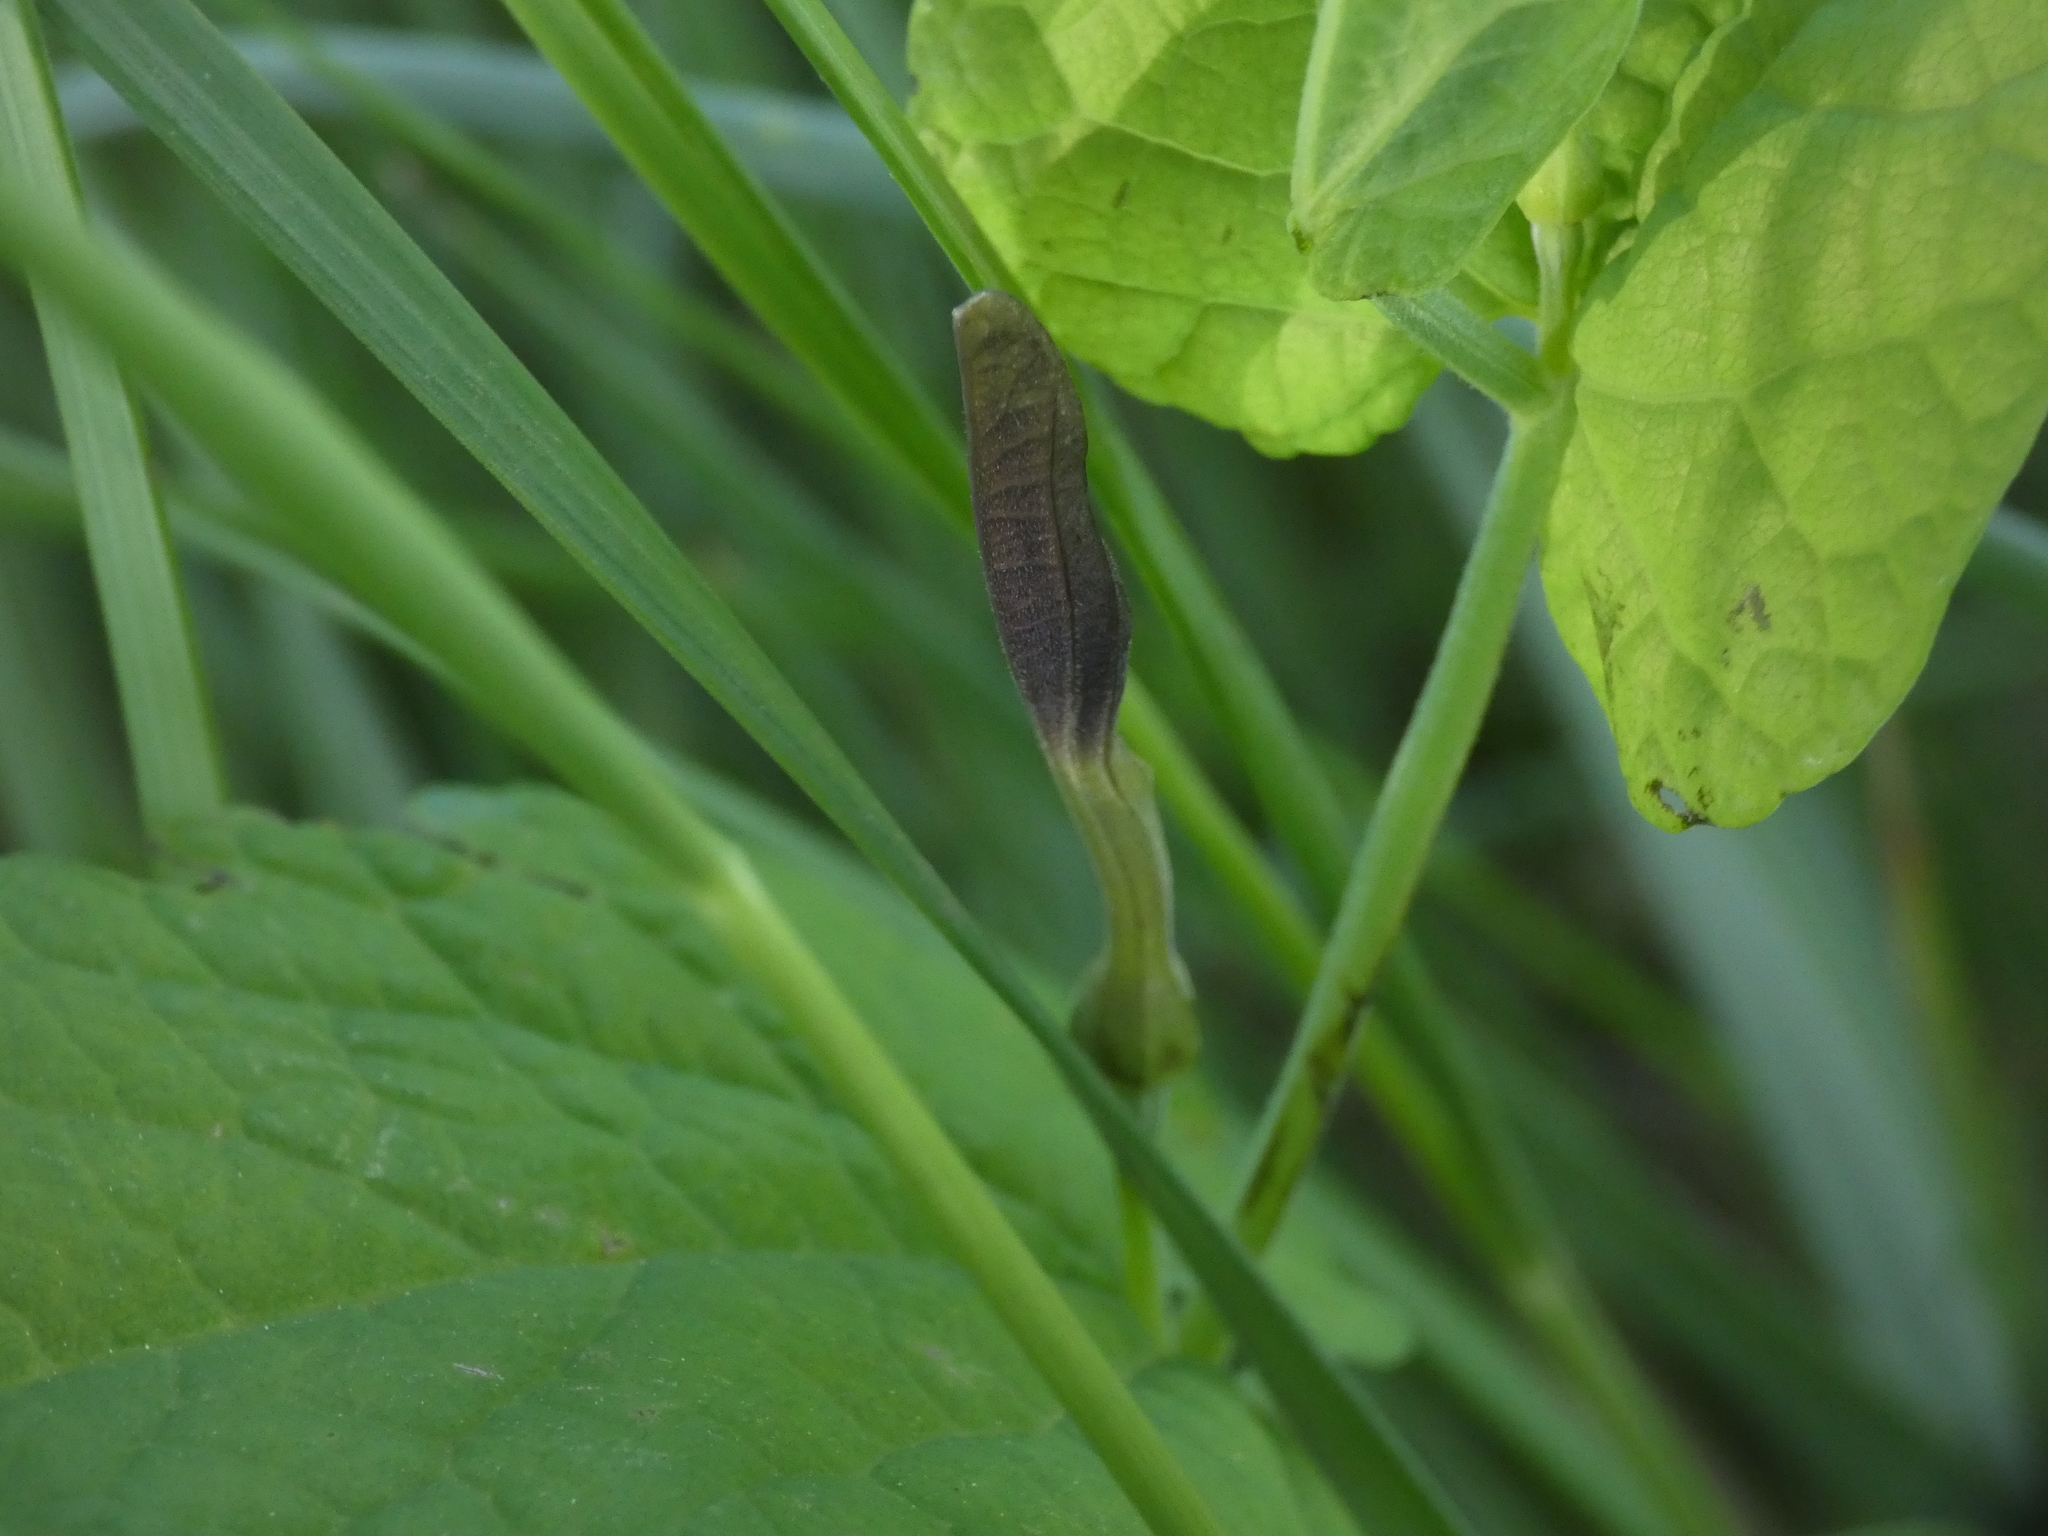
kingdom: Plantae
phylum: Tracheophyta
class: Magnoliopsida
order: Piperales
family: Aristolochiaceae
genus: Aristolochia
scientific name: Aristolochia rotunda
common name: Smearwort
